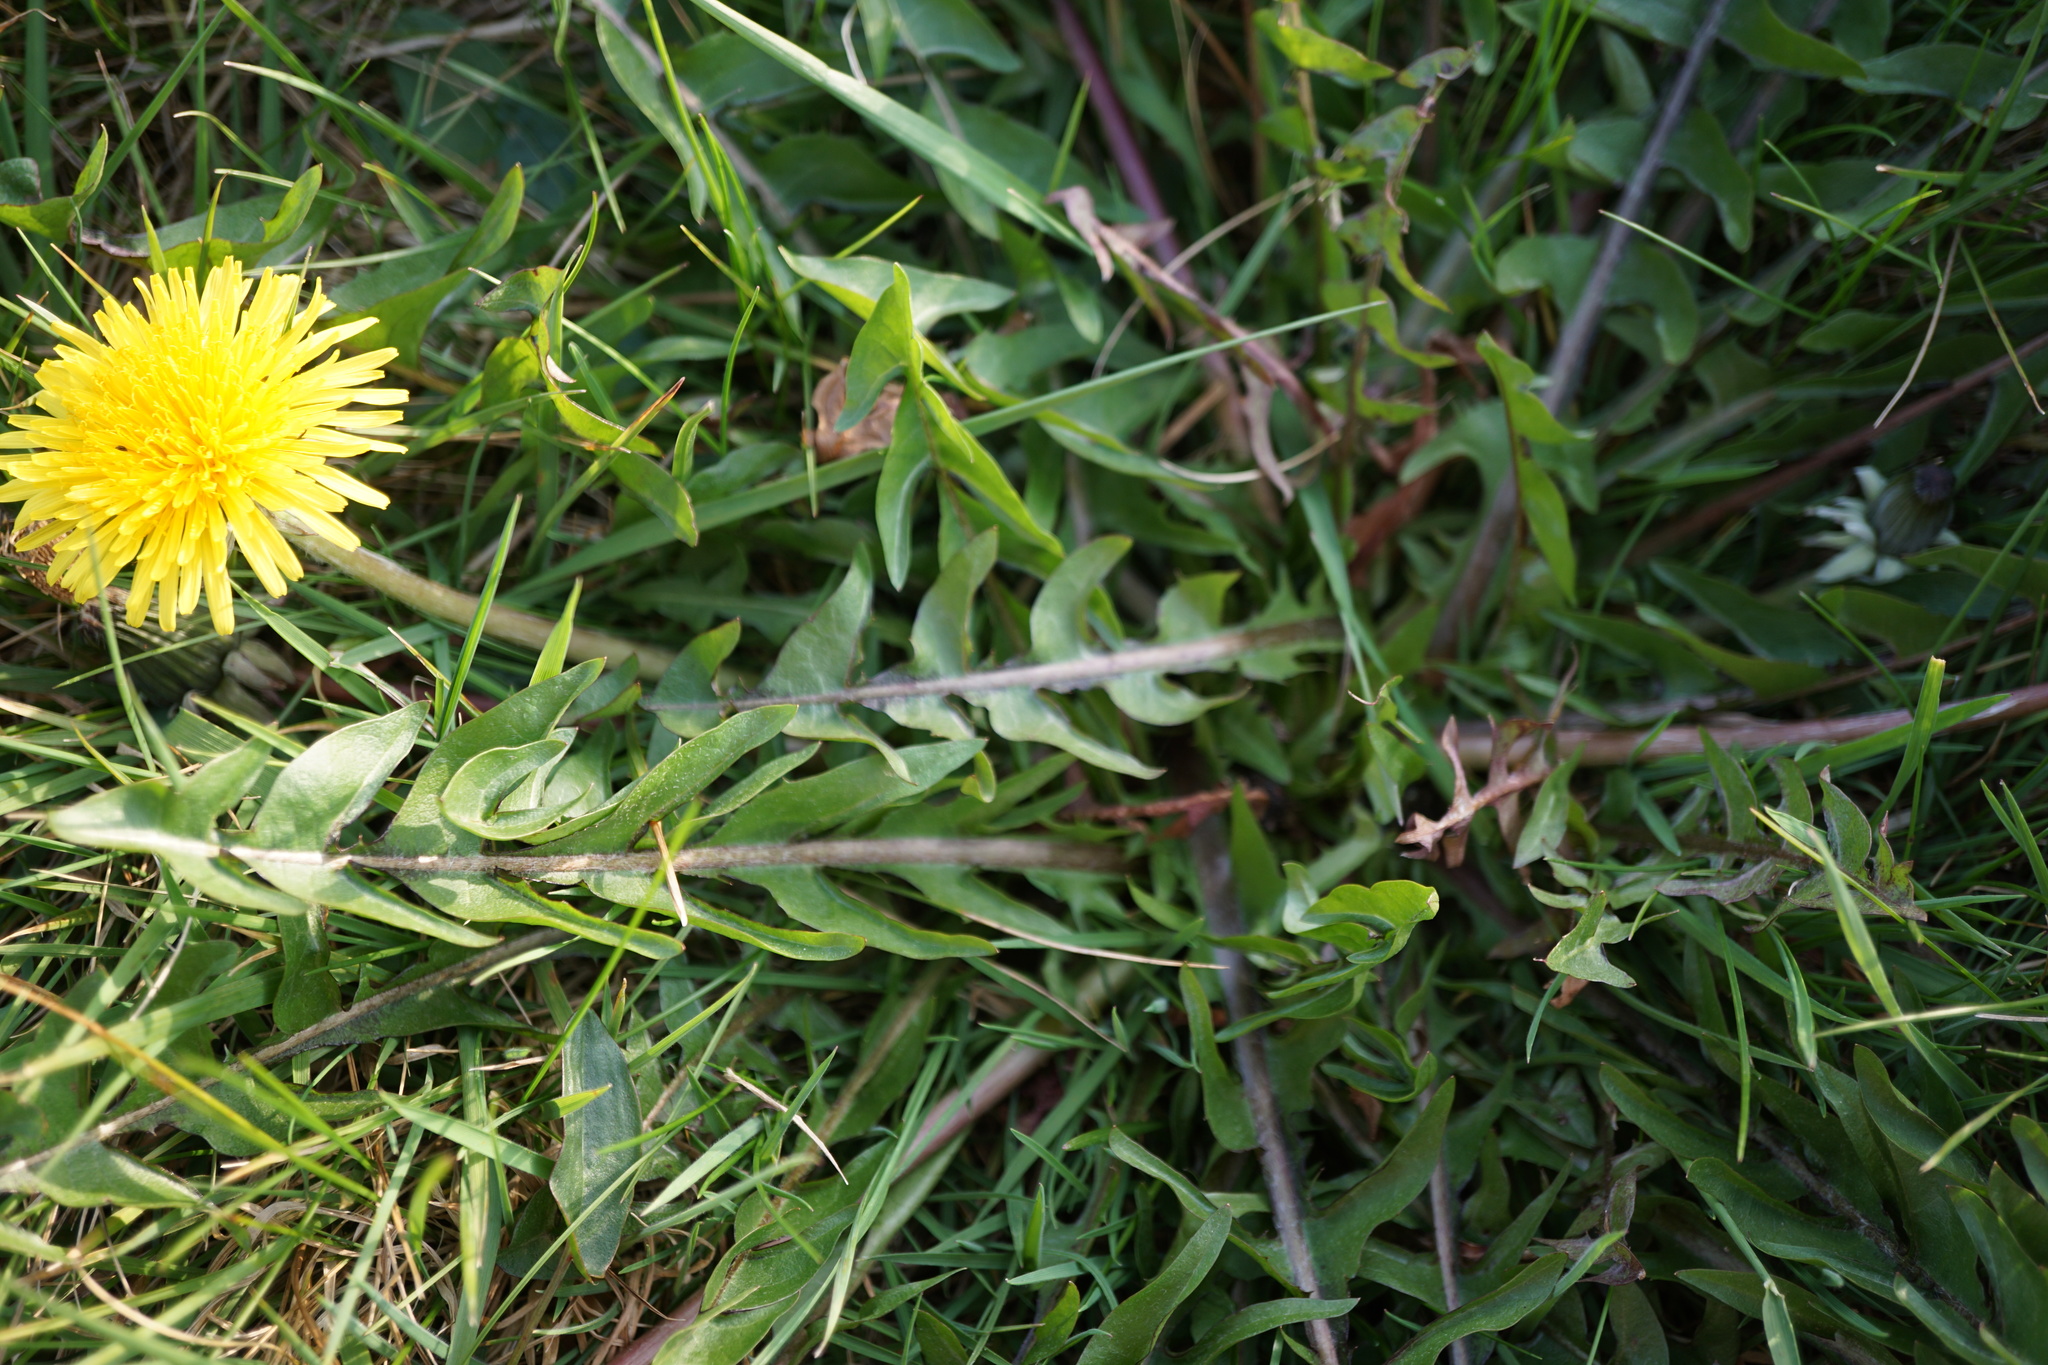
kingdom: Plantae
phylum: Tracheophyta
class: Magnoliopsida
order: Asterales
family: Asteraceae
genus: Taraxacum
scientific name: Taraxacum officinale
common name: Common dandelion
